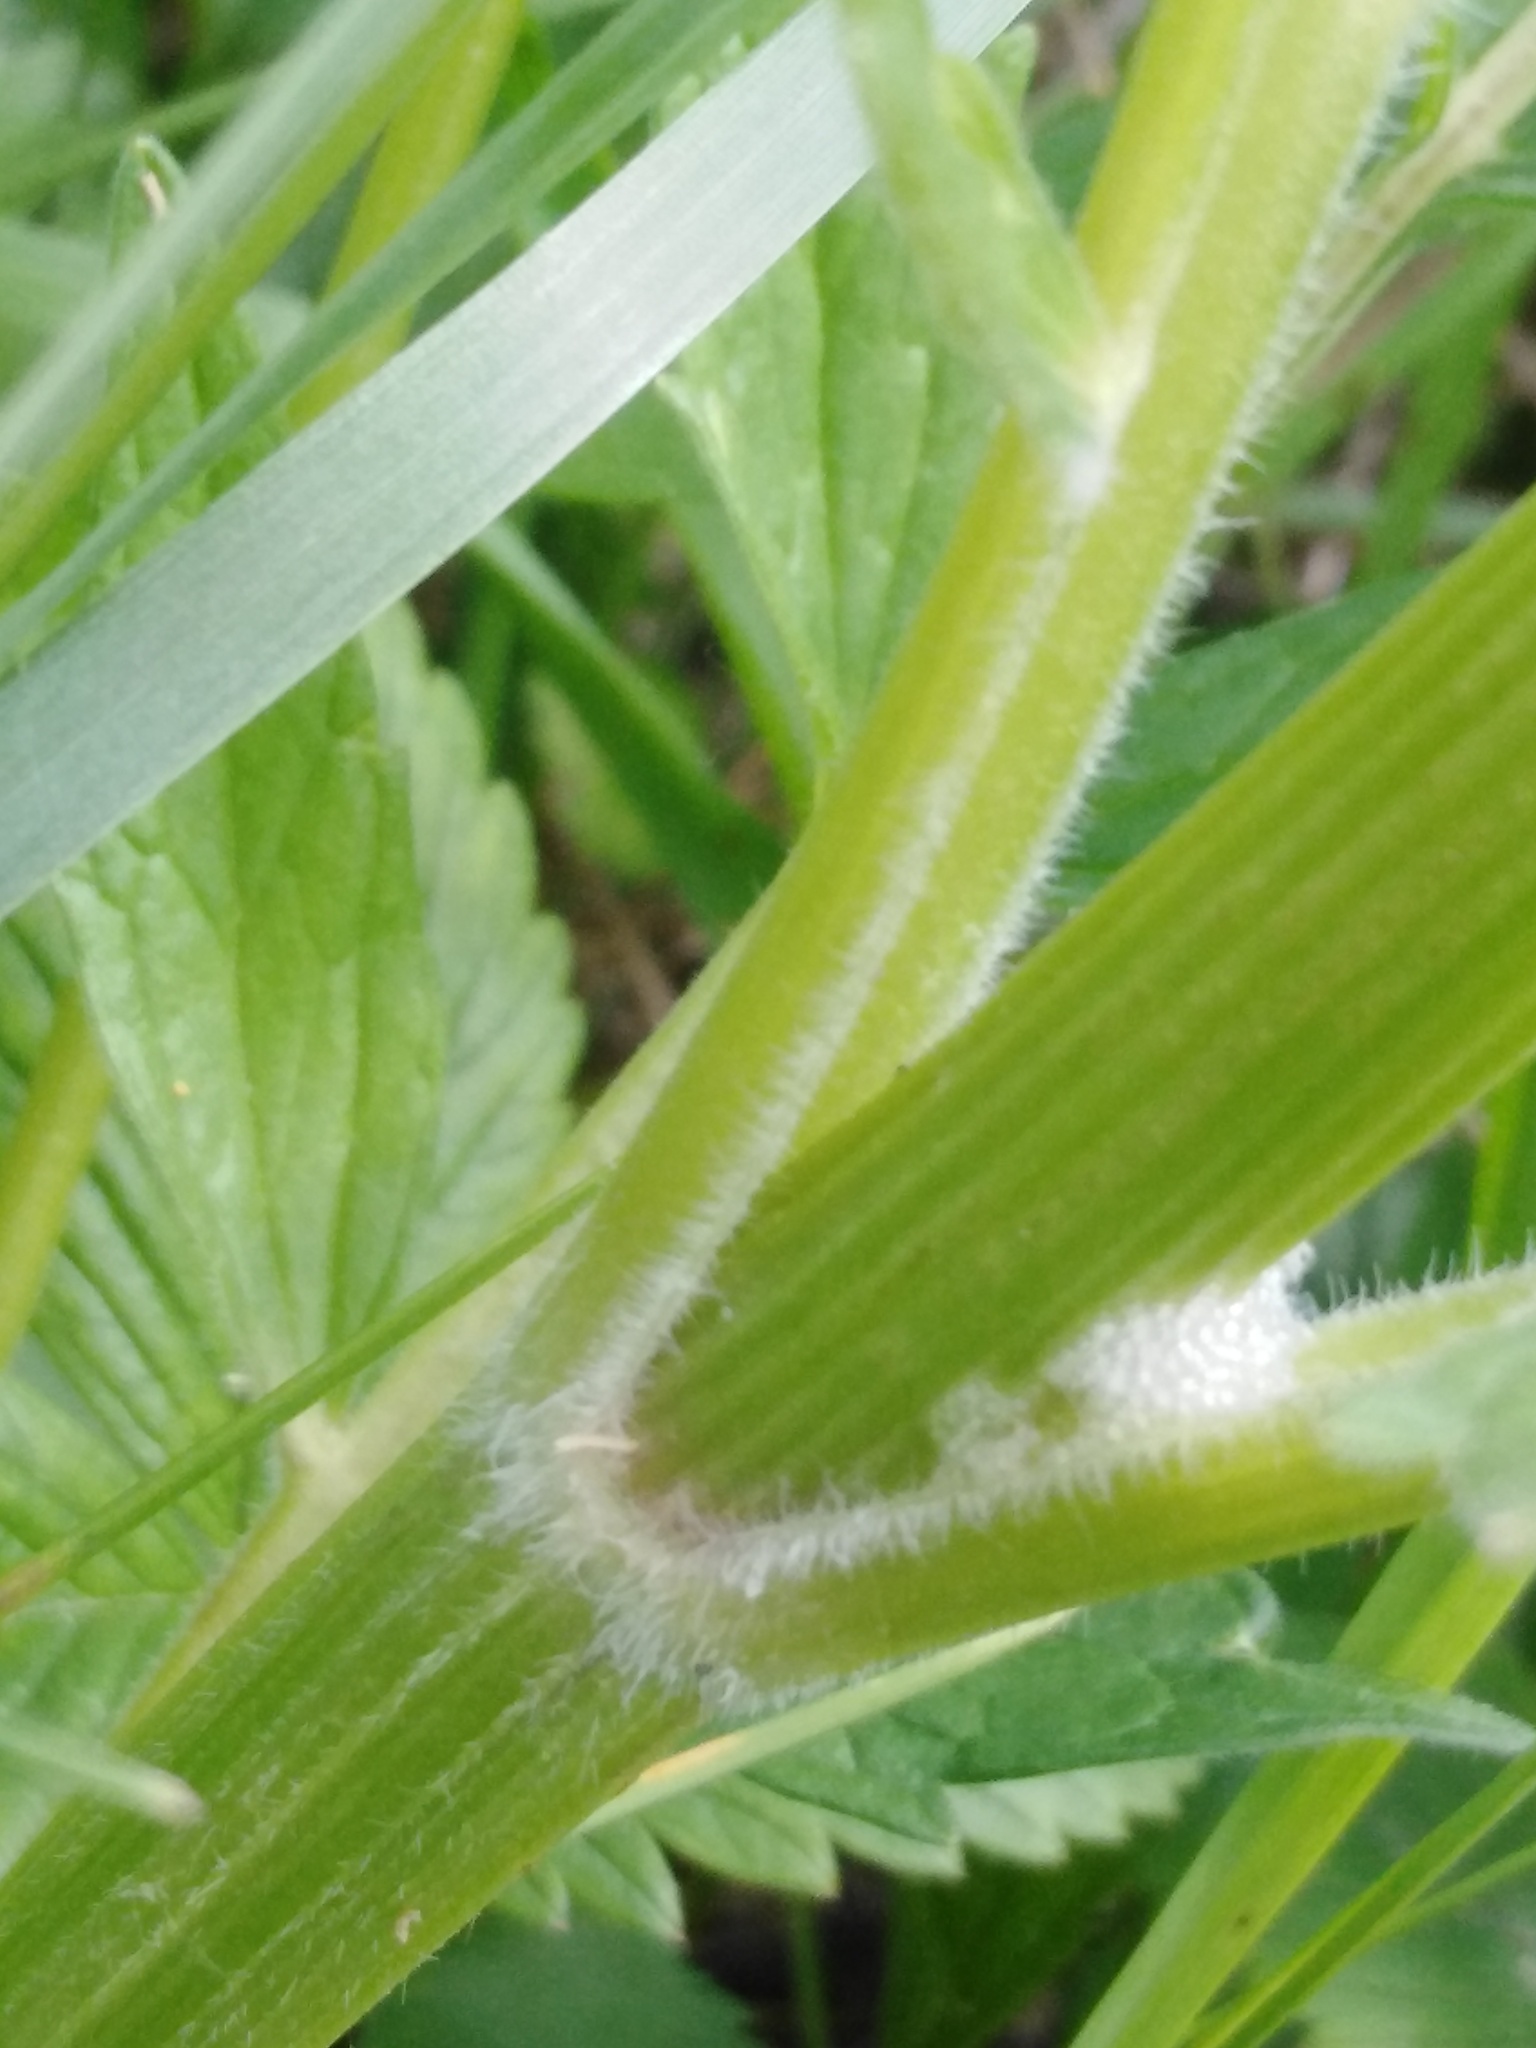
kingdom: Plantae
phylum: Tracheophyta
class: Magnoliopsida
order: Dipsacales
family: Caprifoliaceae
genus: Valeriana
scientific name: Valeriana officinalis
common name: Common valerian
